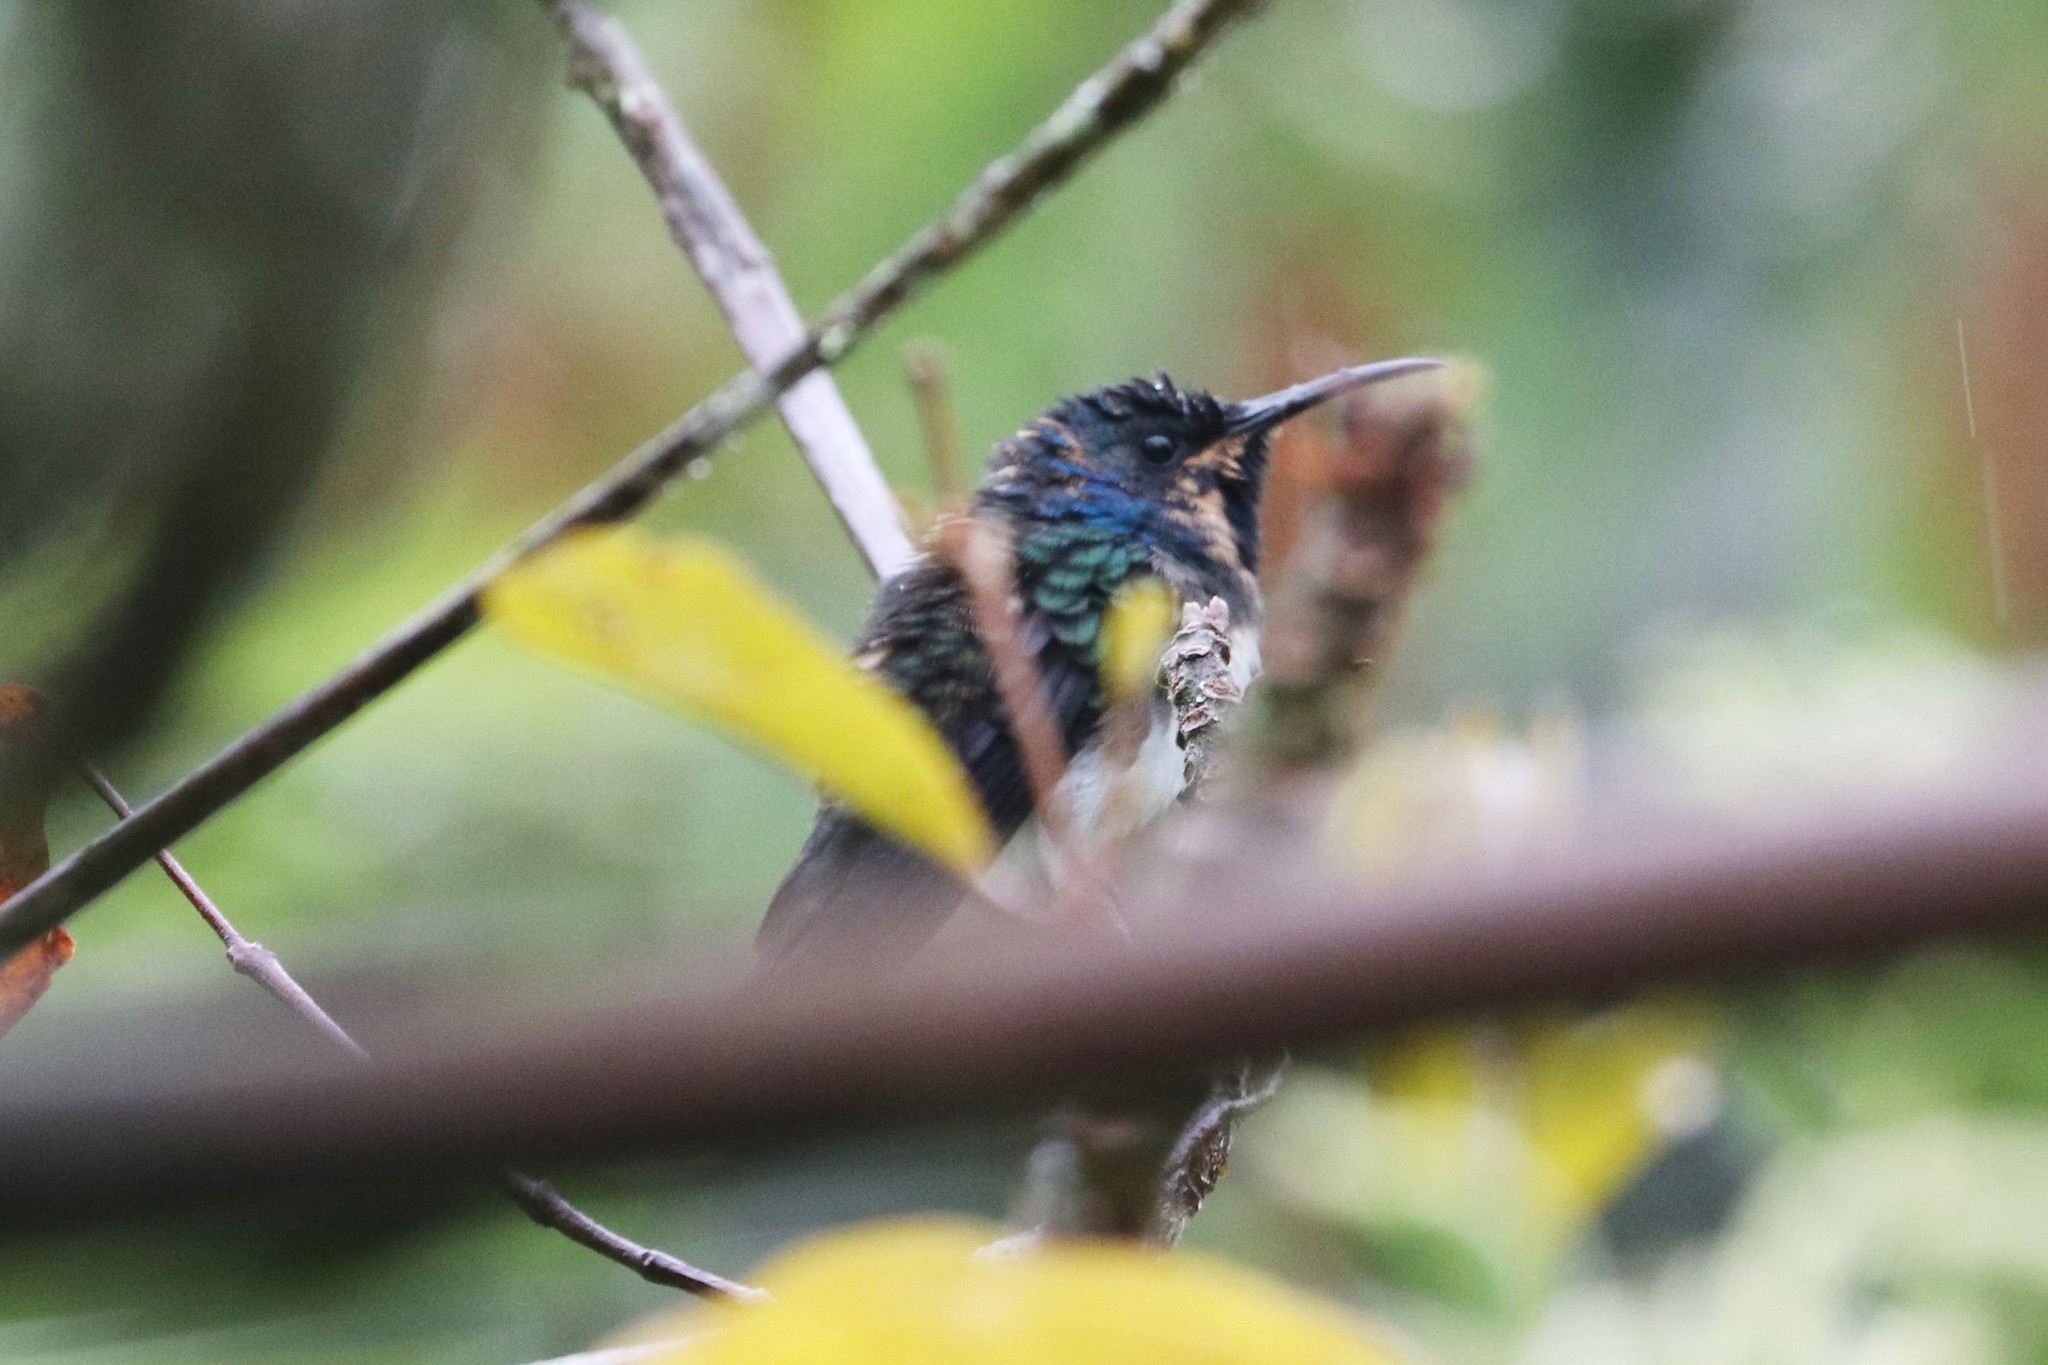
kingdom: Animalia
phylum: Chordata
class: Aves
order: Apodiformes
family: Trochilidae
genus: Florisuga
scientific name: Florisuga mellivora
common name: White-necked jacobin
